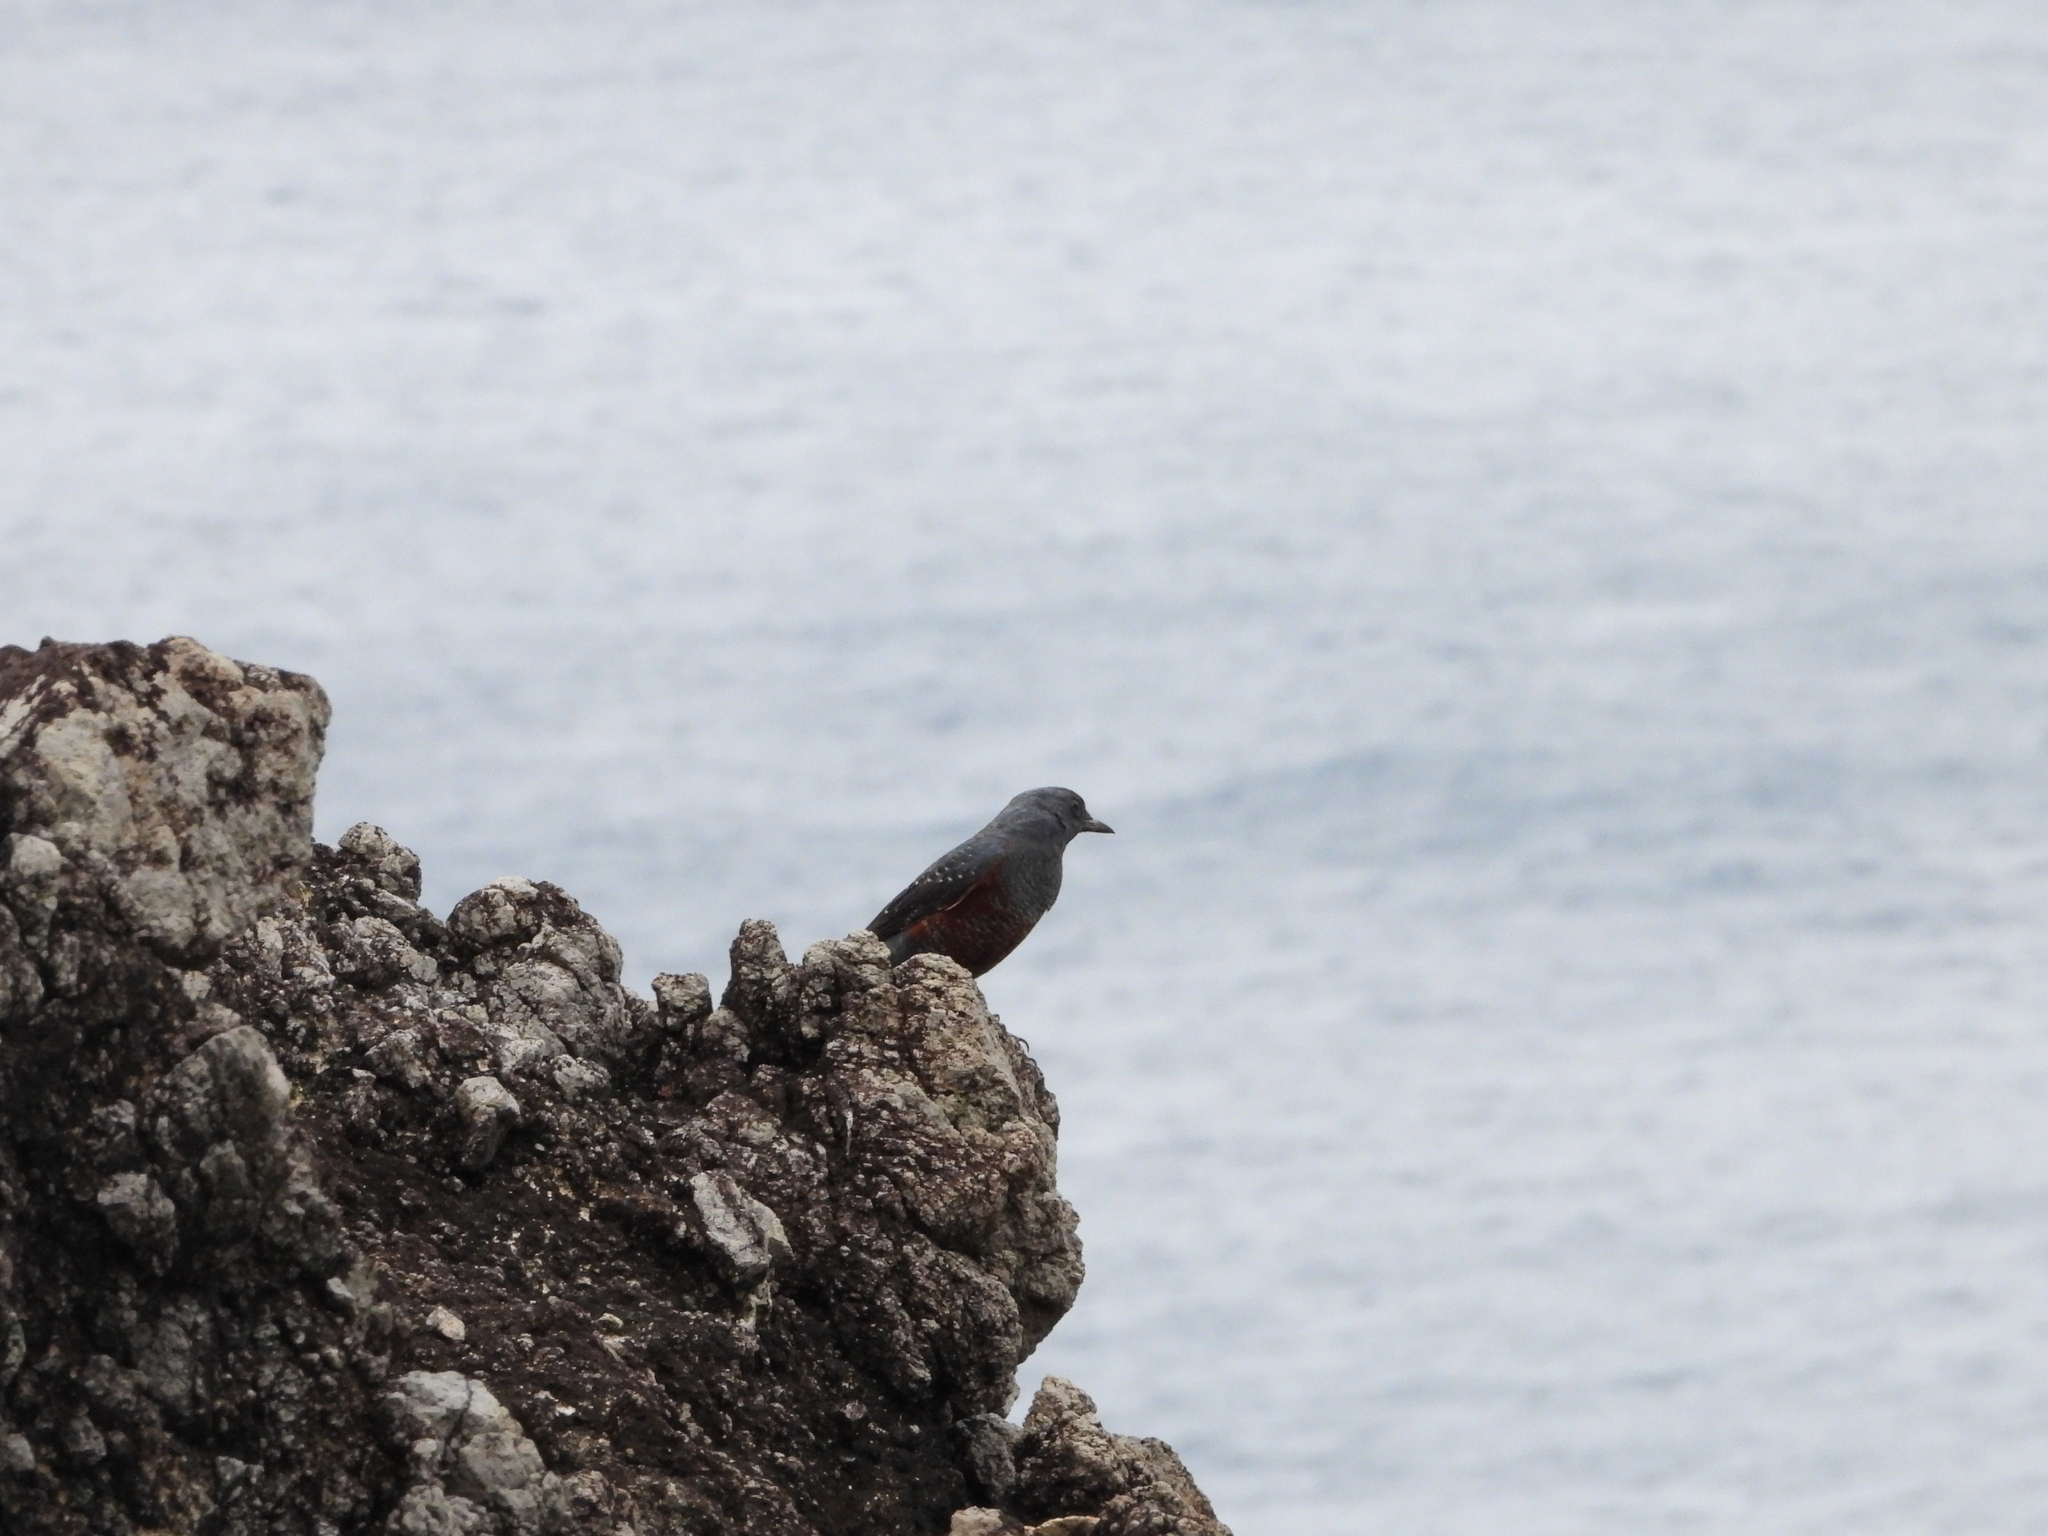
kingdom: Animalia
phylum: Chordata
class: Aves
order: Passeriformes
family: Muscicapidae
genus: Monticola
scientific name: Monticola solitarius
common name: Blue rock thrush
